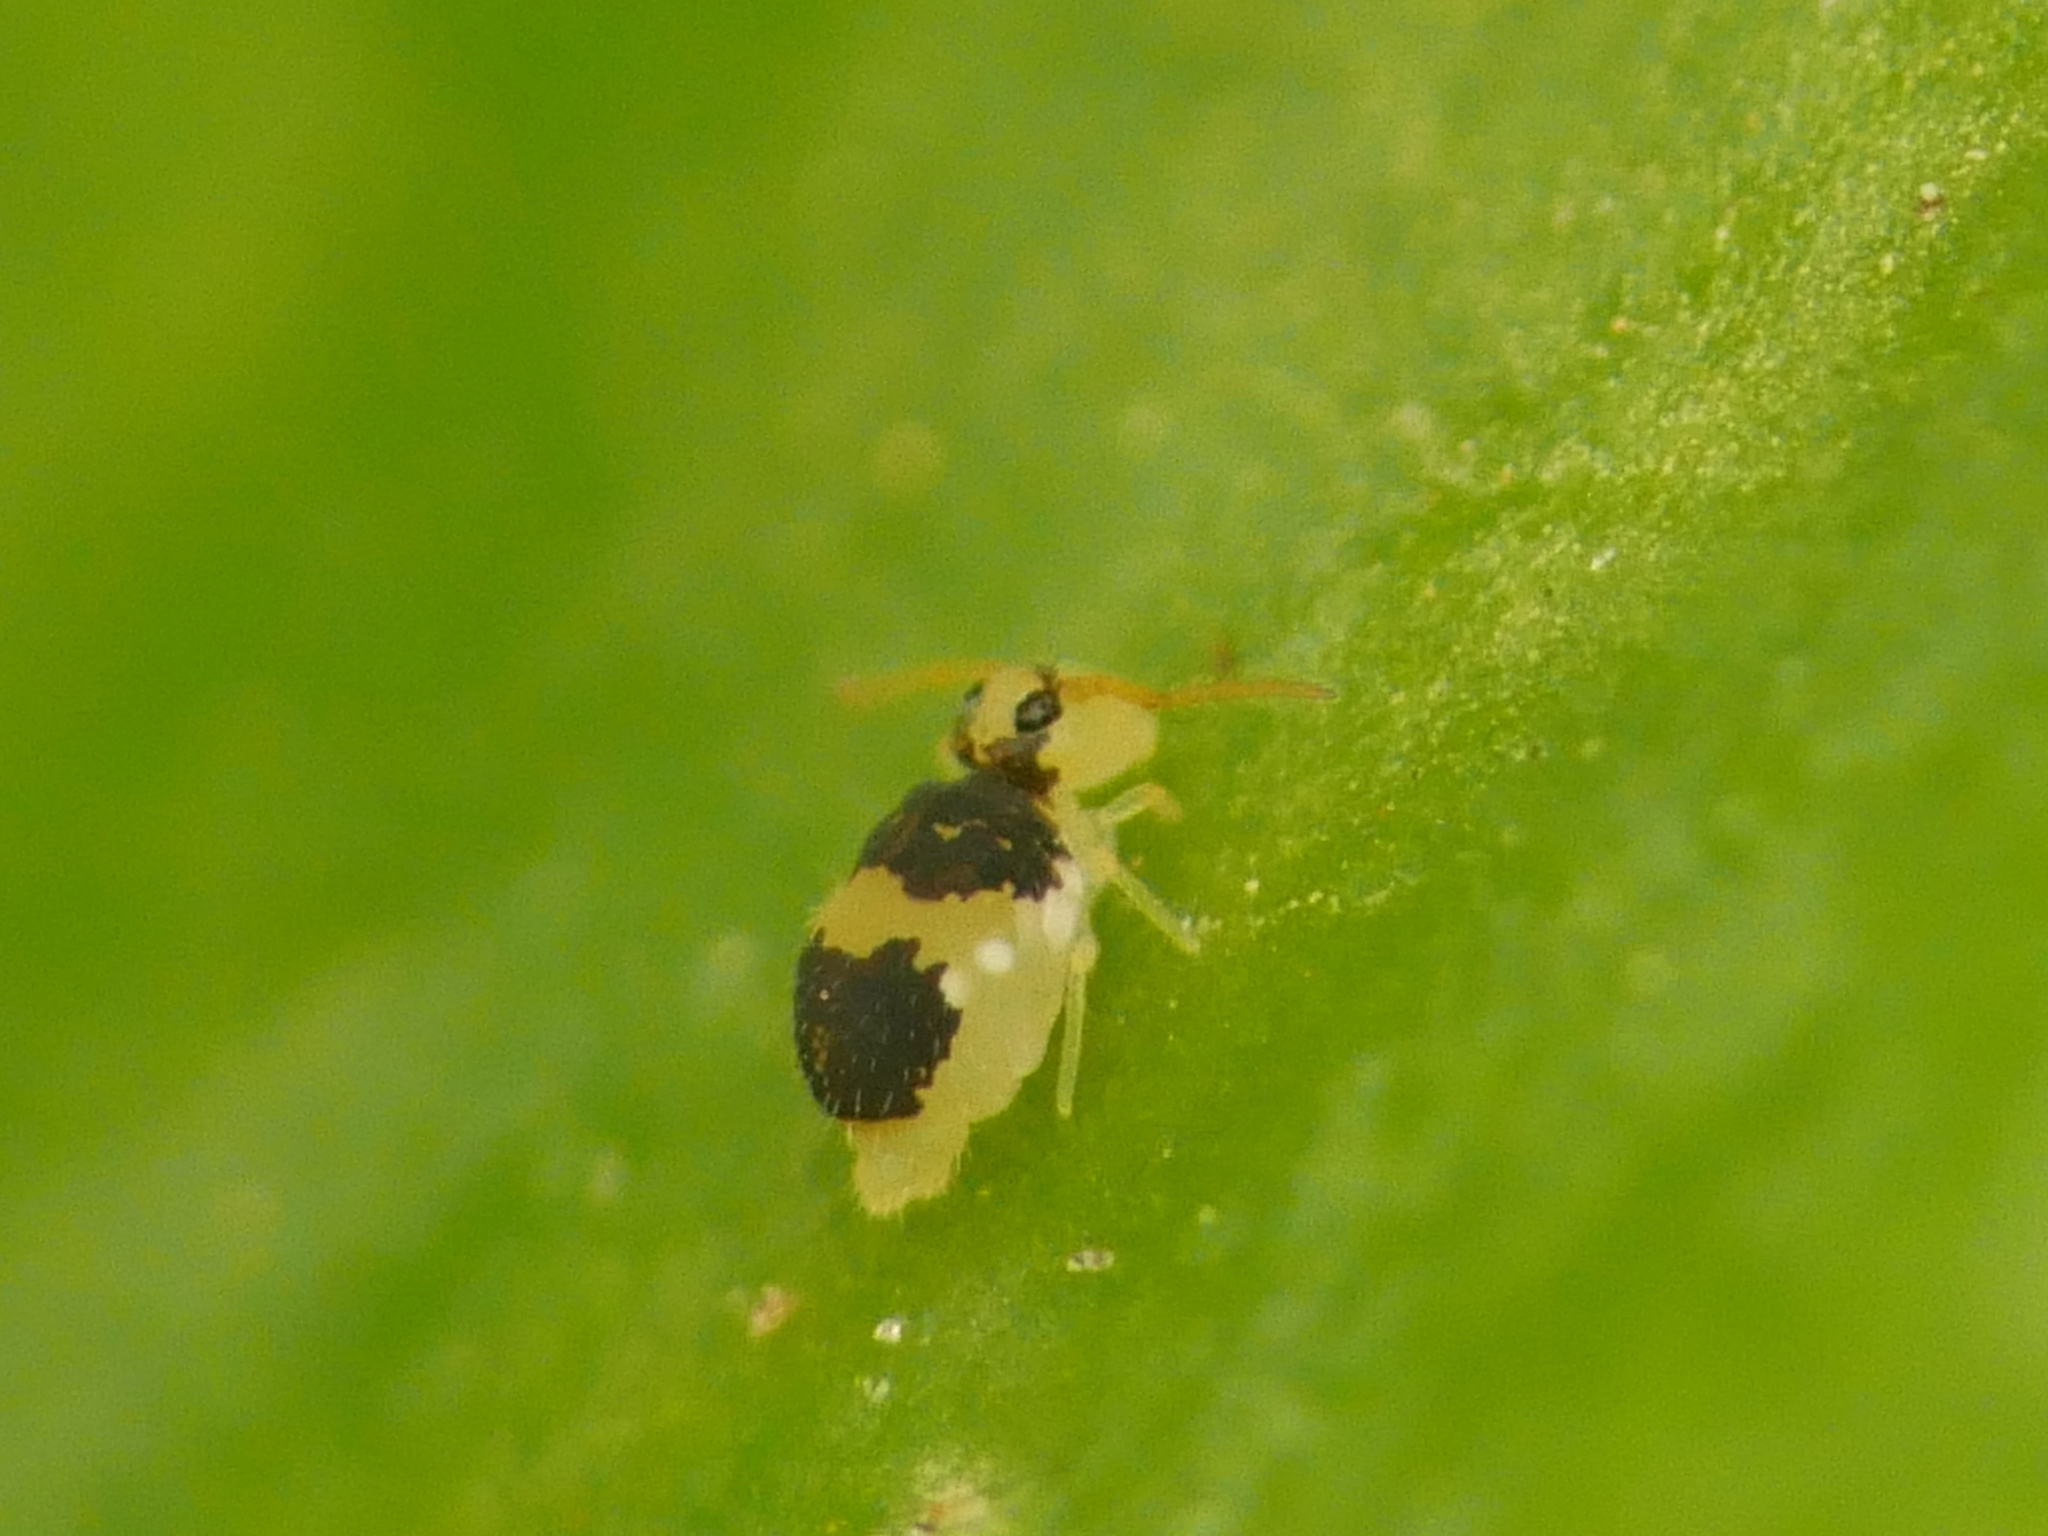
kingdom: Animalia
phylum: Arthropoda
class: Collembola
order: Symphypleona
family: Bourletiellidae
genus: Deuterosminthurus
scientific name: Deuterosminthurus bicinctus
